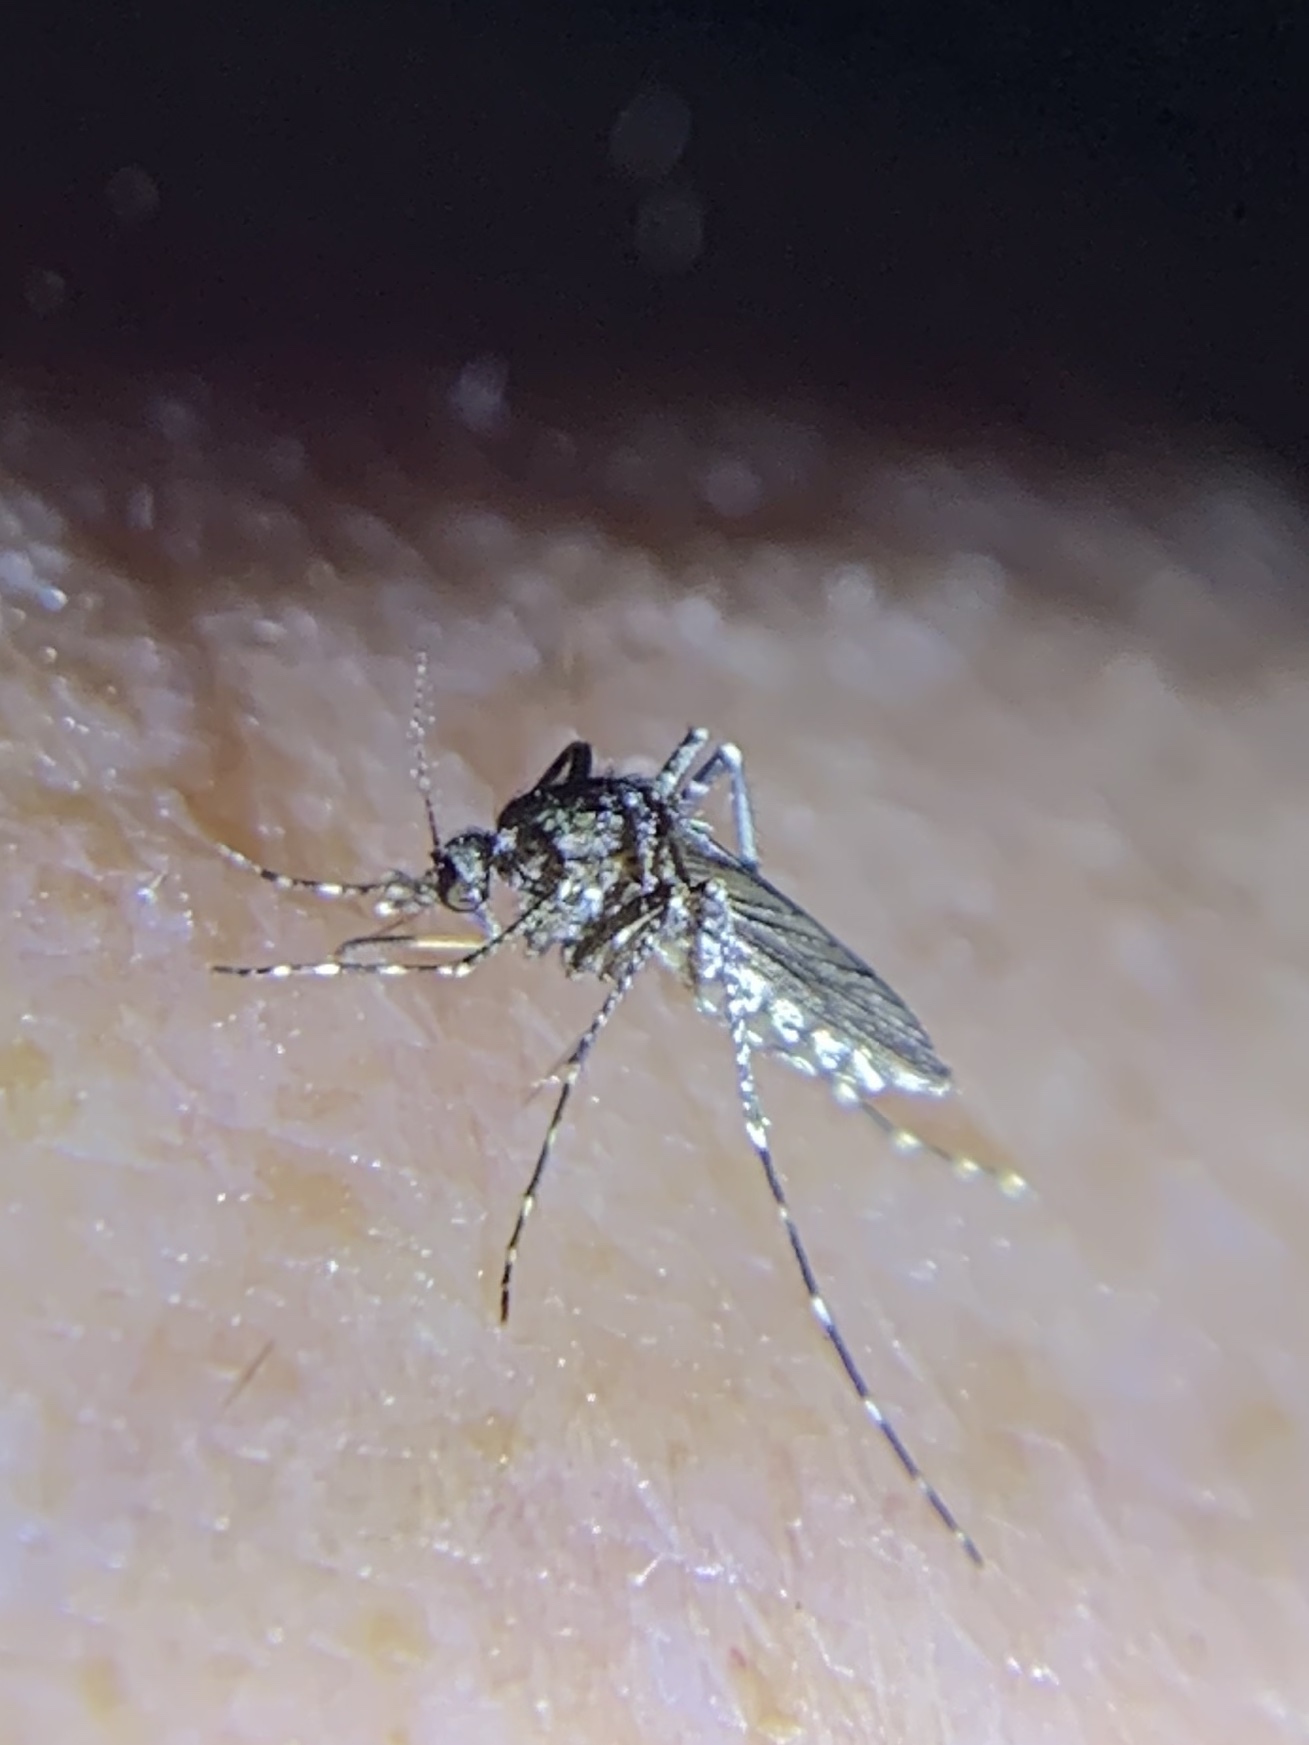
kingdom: Animalia
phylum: Arthropoda
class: Insecta
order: Diptera
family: Culicidae
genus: Psorophora
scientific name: Psorophora columbiae
